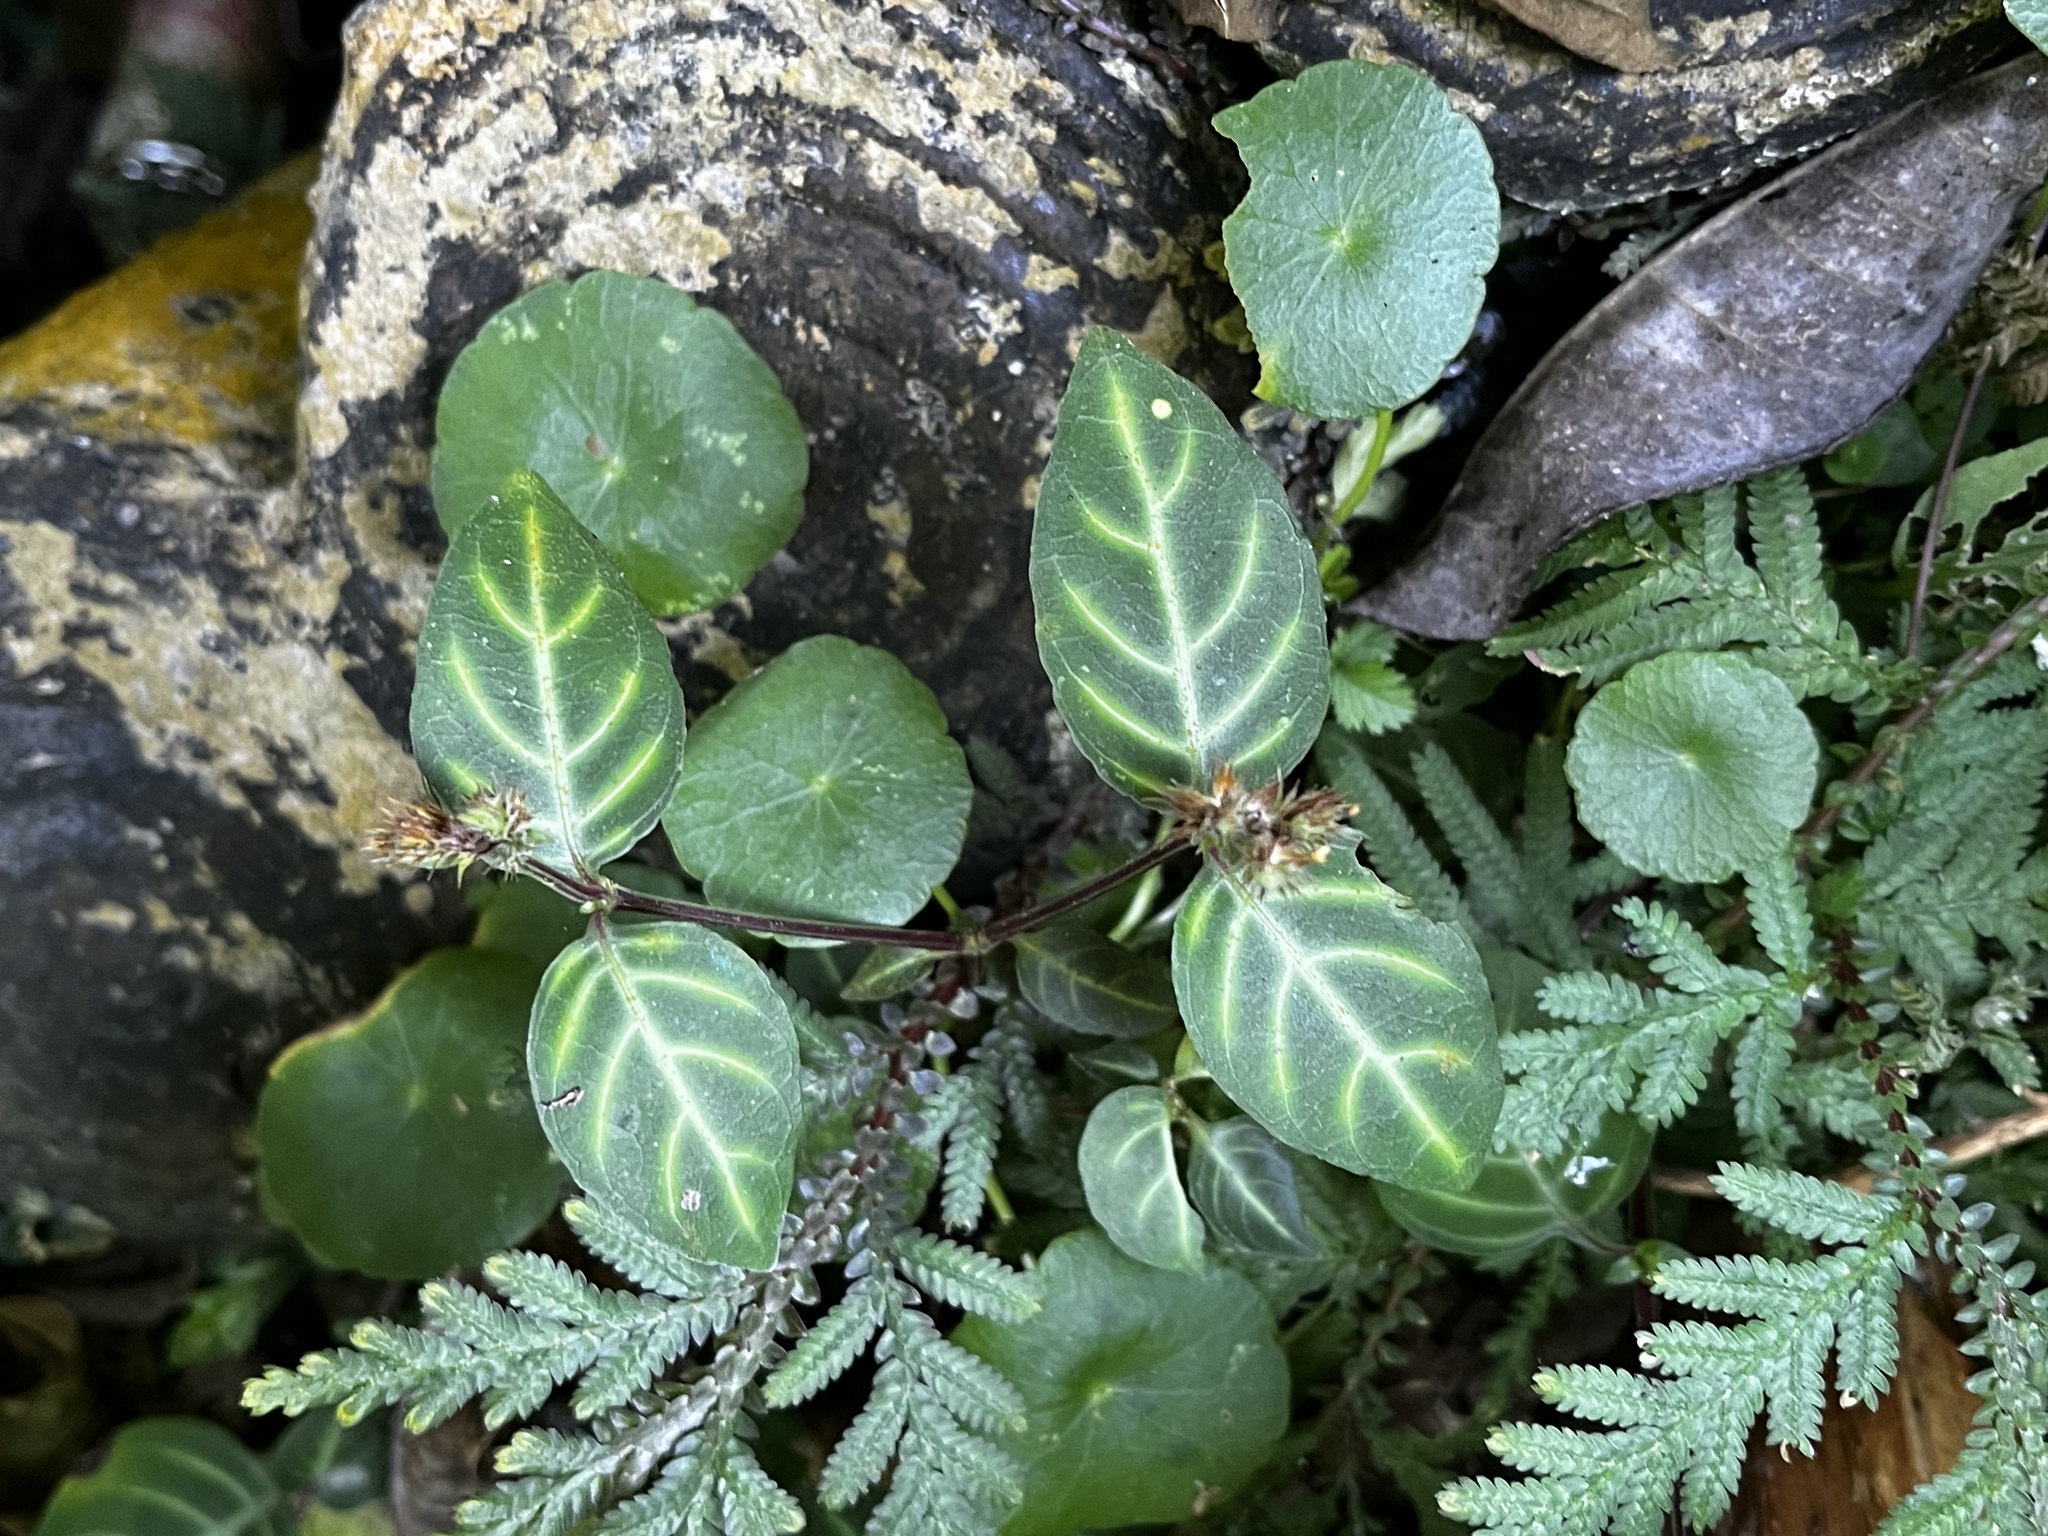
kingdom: Plantae
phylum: Tracheophyta
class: Magnoliopsida
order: Lamiales
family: Acanthaceae
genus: Lepidagathis
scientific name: Lepidagathis inaequalis
